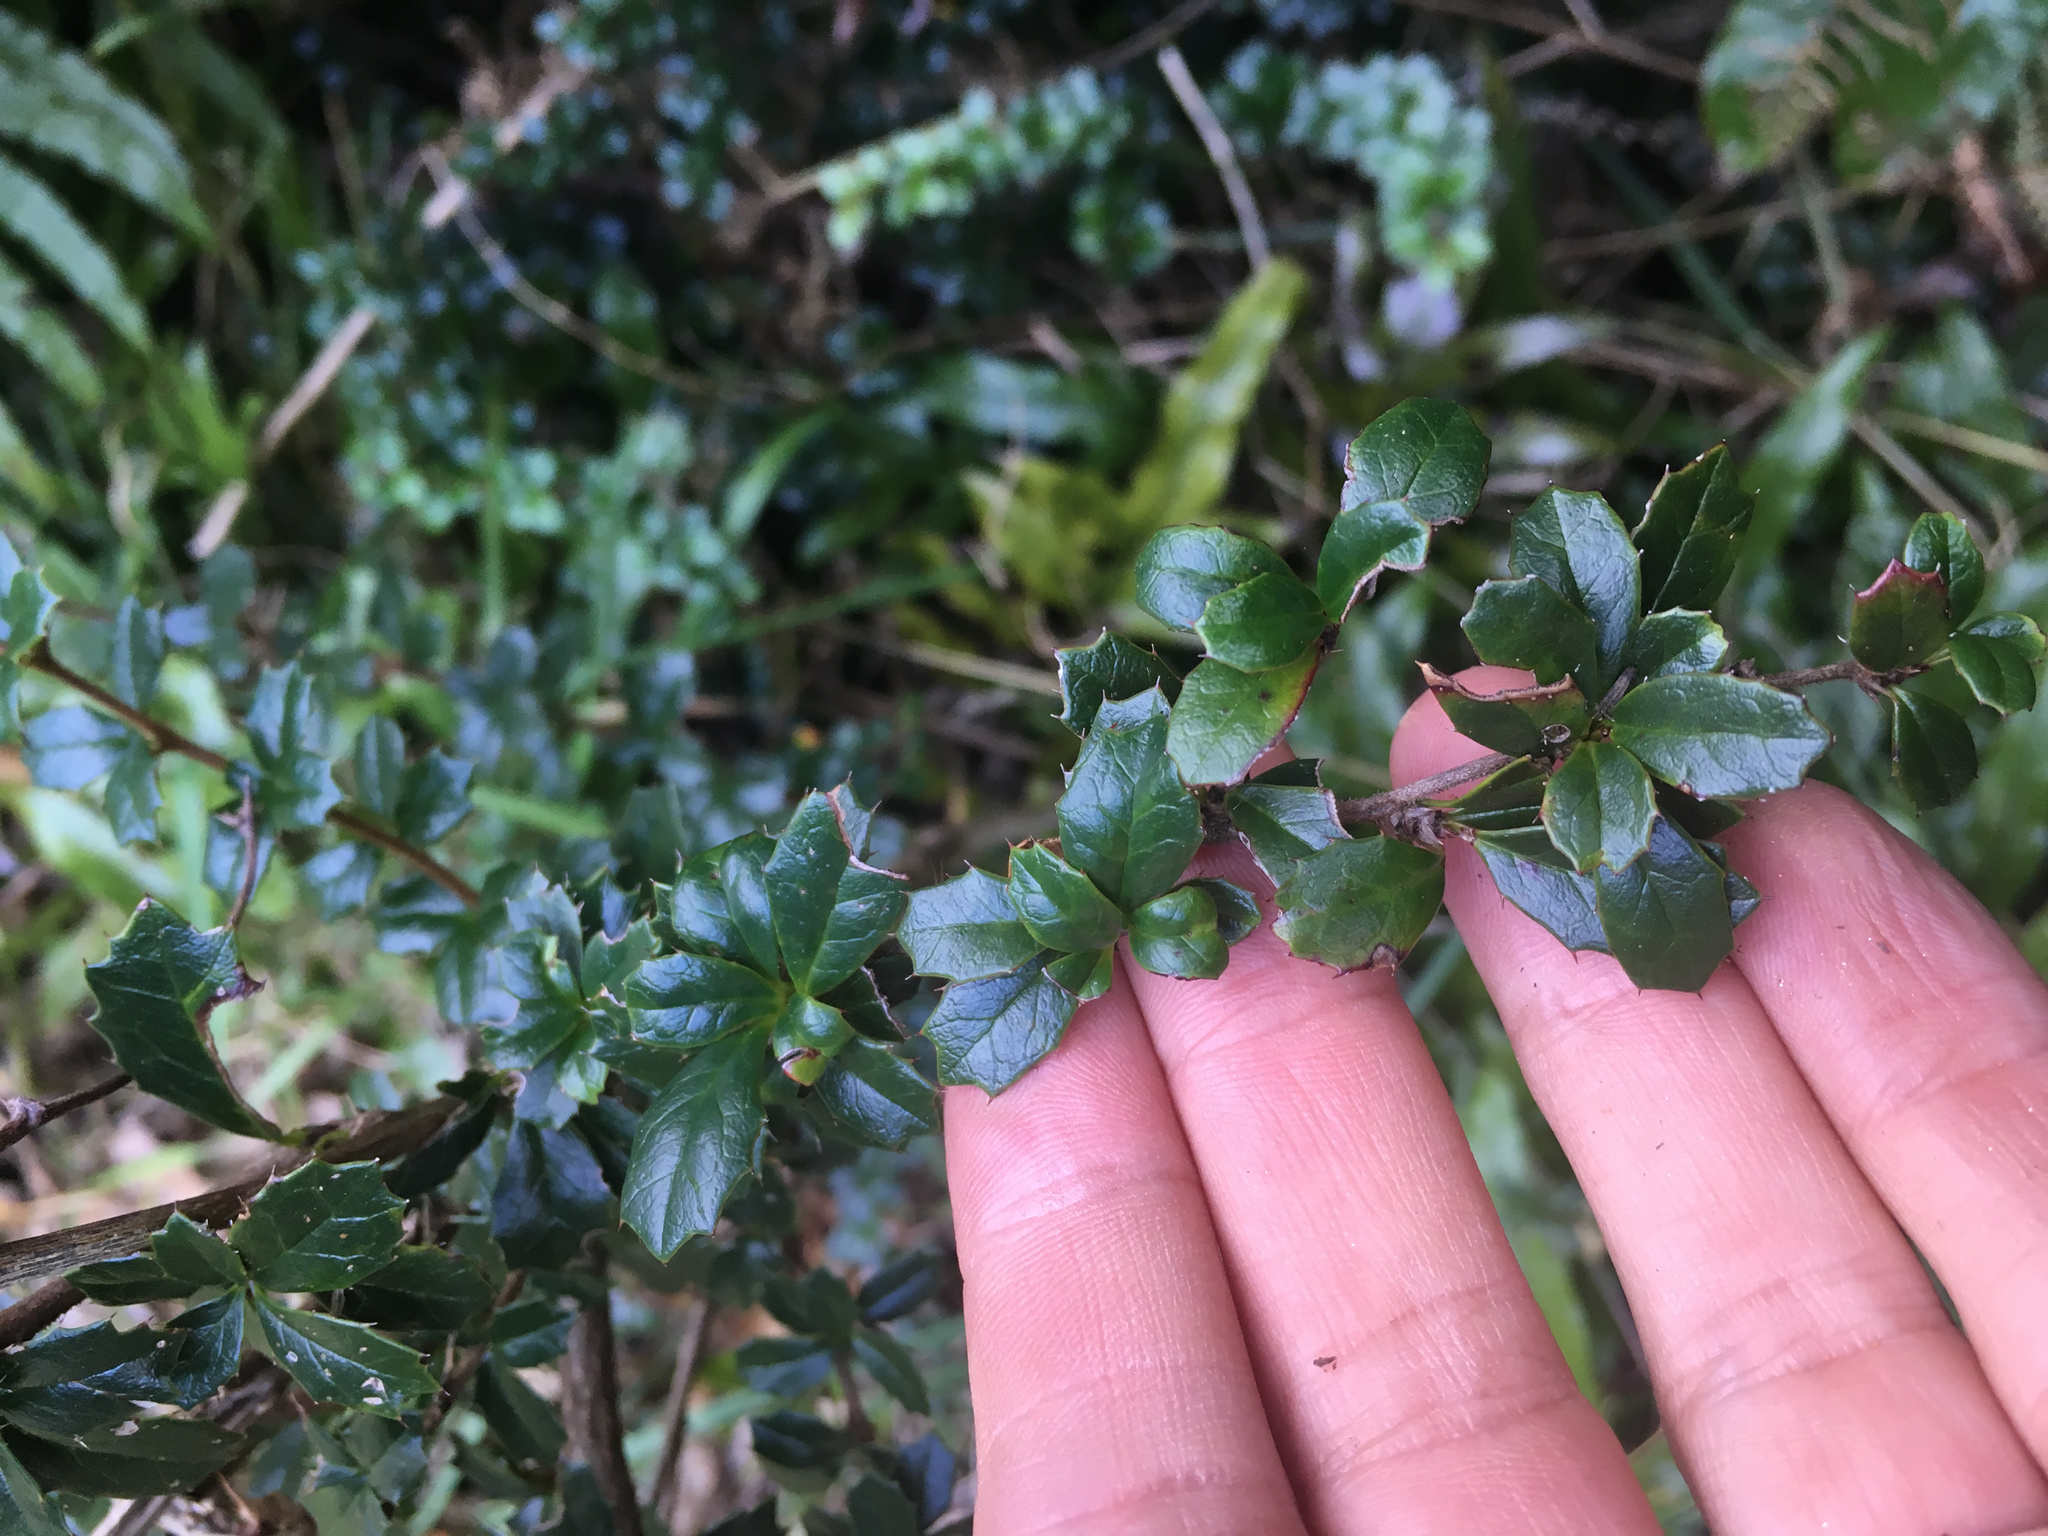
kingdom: Plantae
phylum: Tracheophyta
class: Magnoliopsida
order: Ranunculales
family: Berberidaceae
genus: Berberis
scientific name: Berberis darwinii
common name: Darwin's barberry
